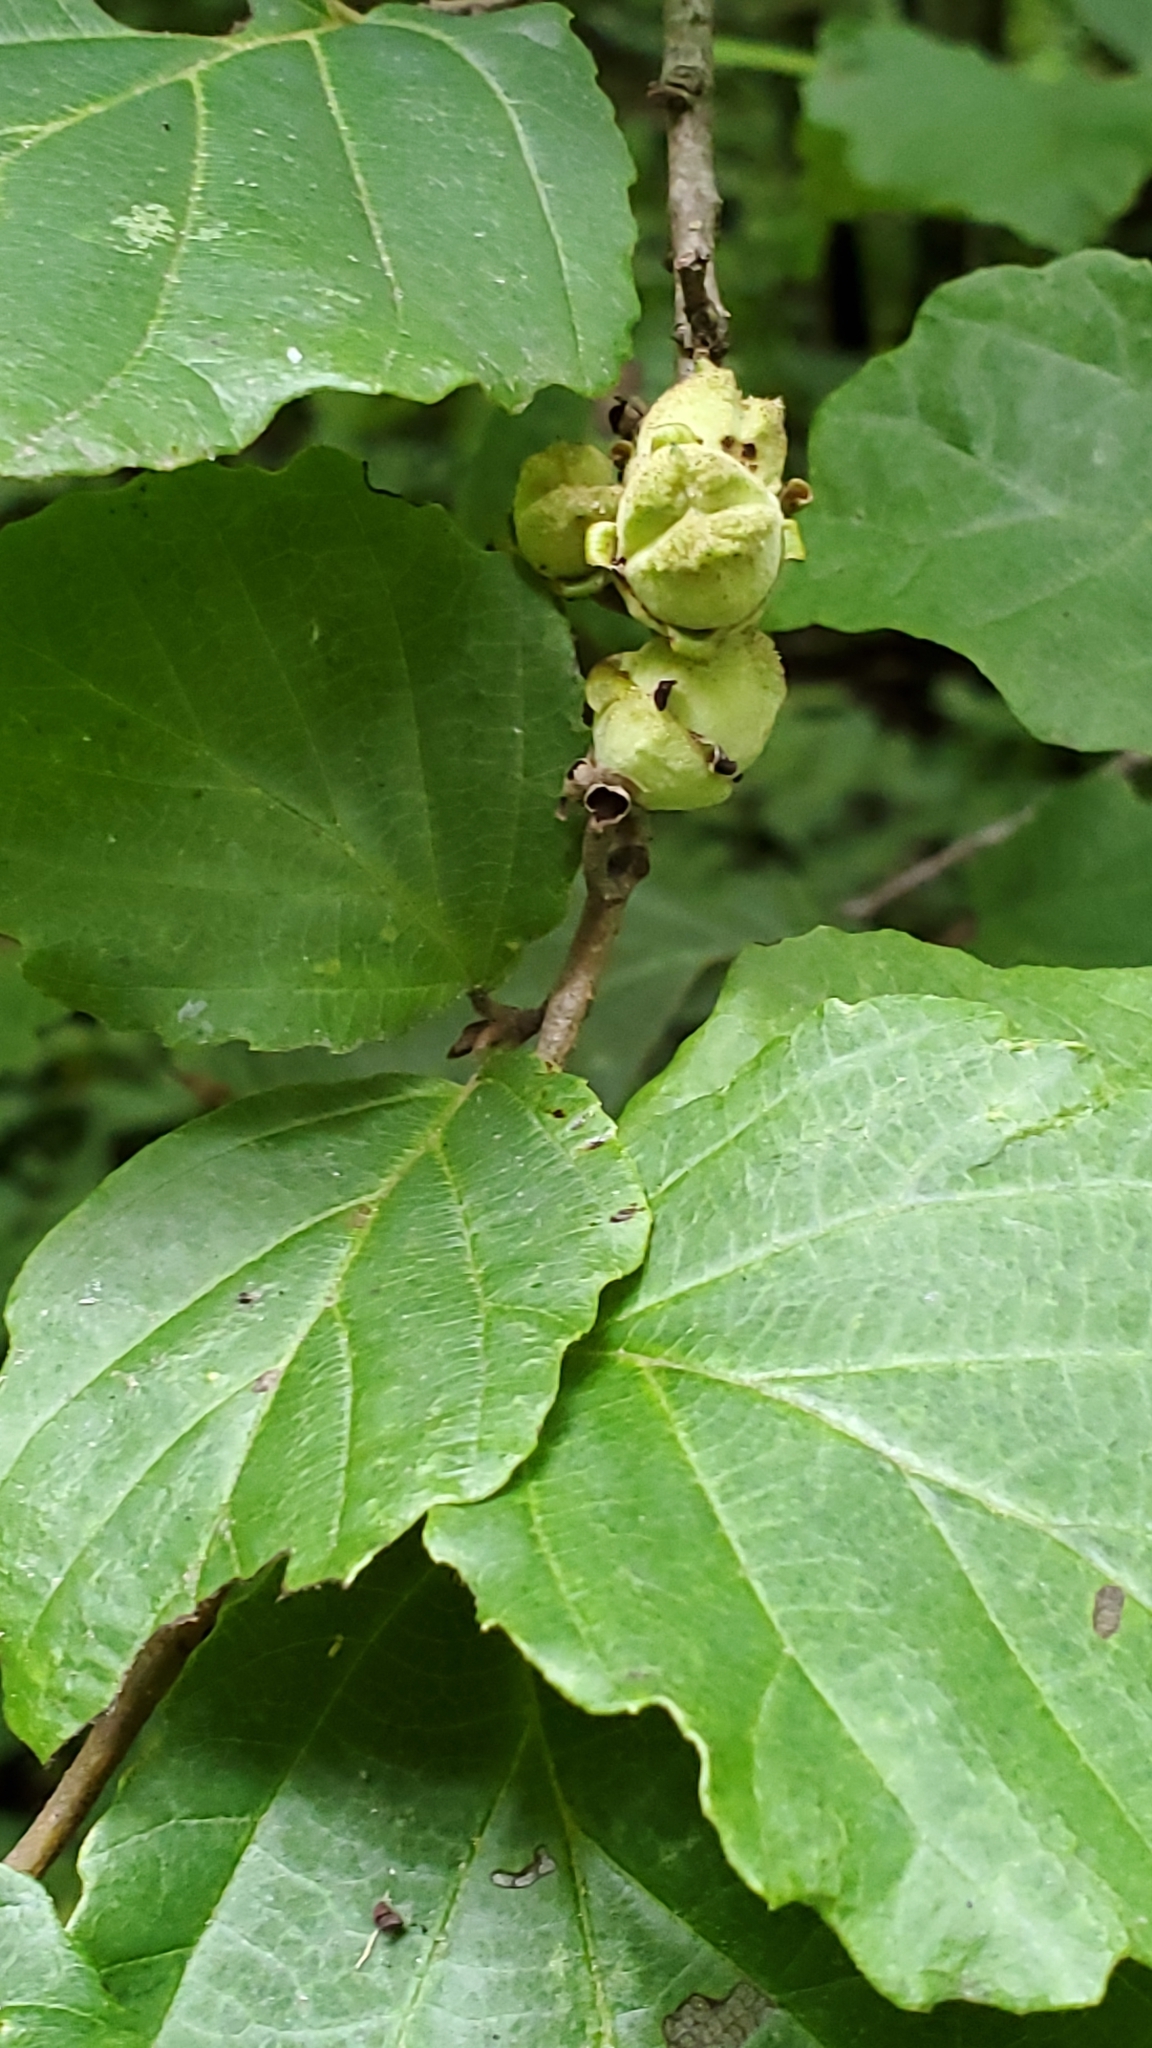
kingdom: Plantae
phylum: Tracheophyta
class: Magnoliopsida
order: Saxifragales
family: Hamamelidaceae
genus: Hamamelis
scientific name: Hamamelis virginiana
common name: Witch-hazel
